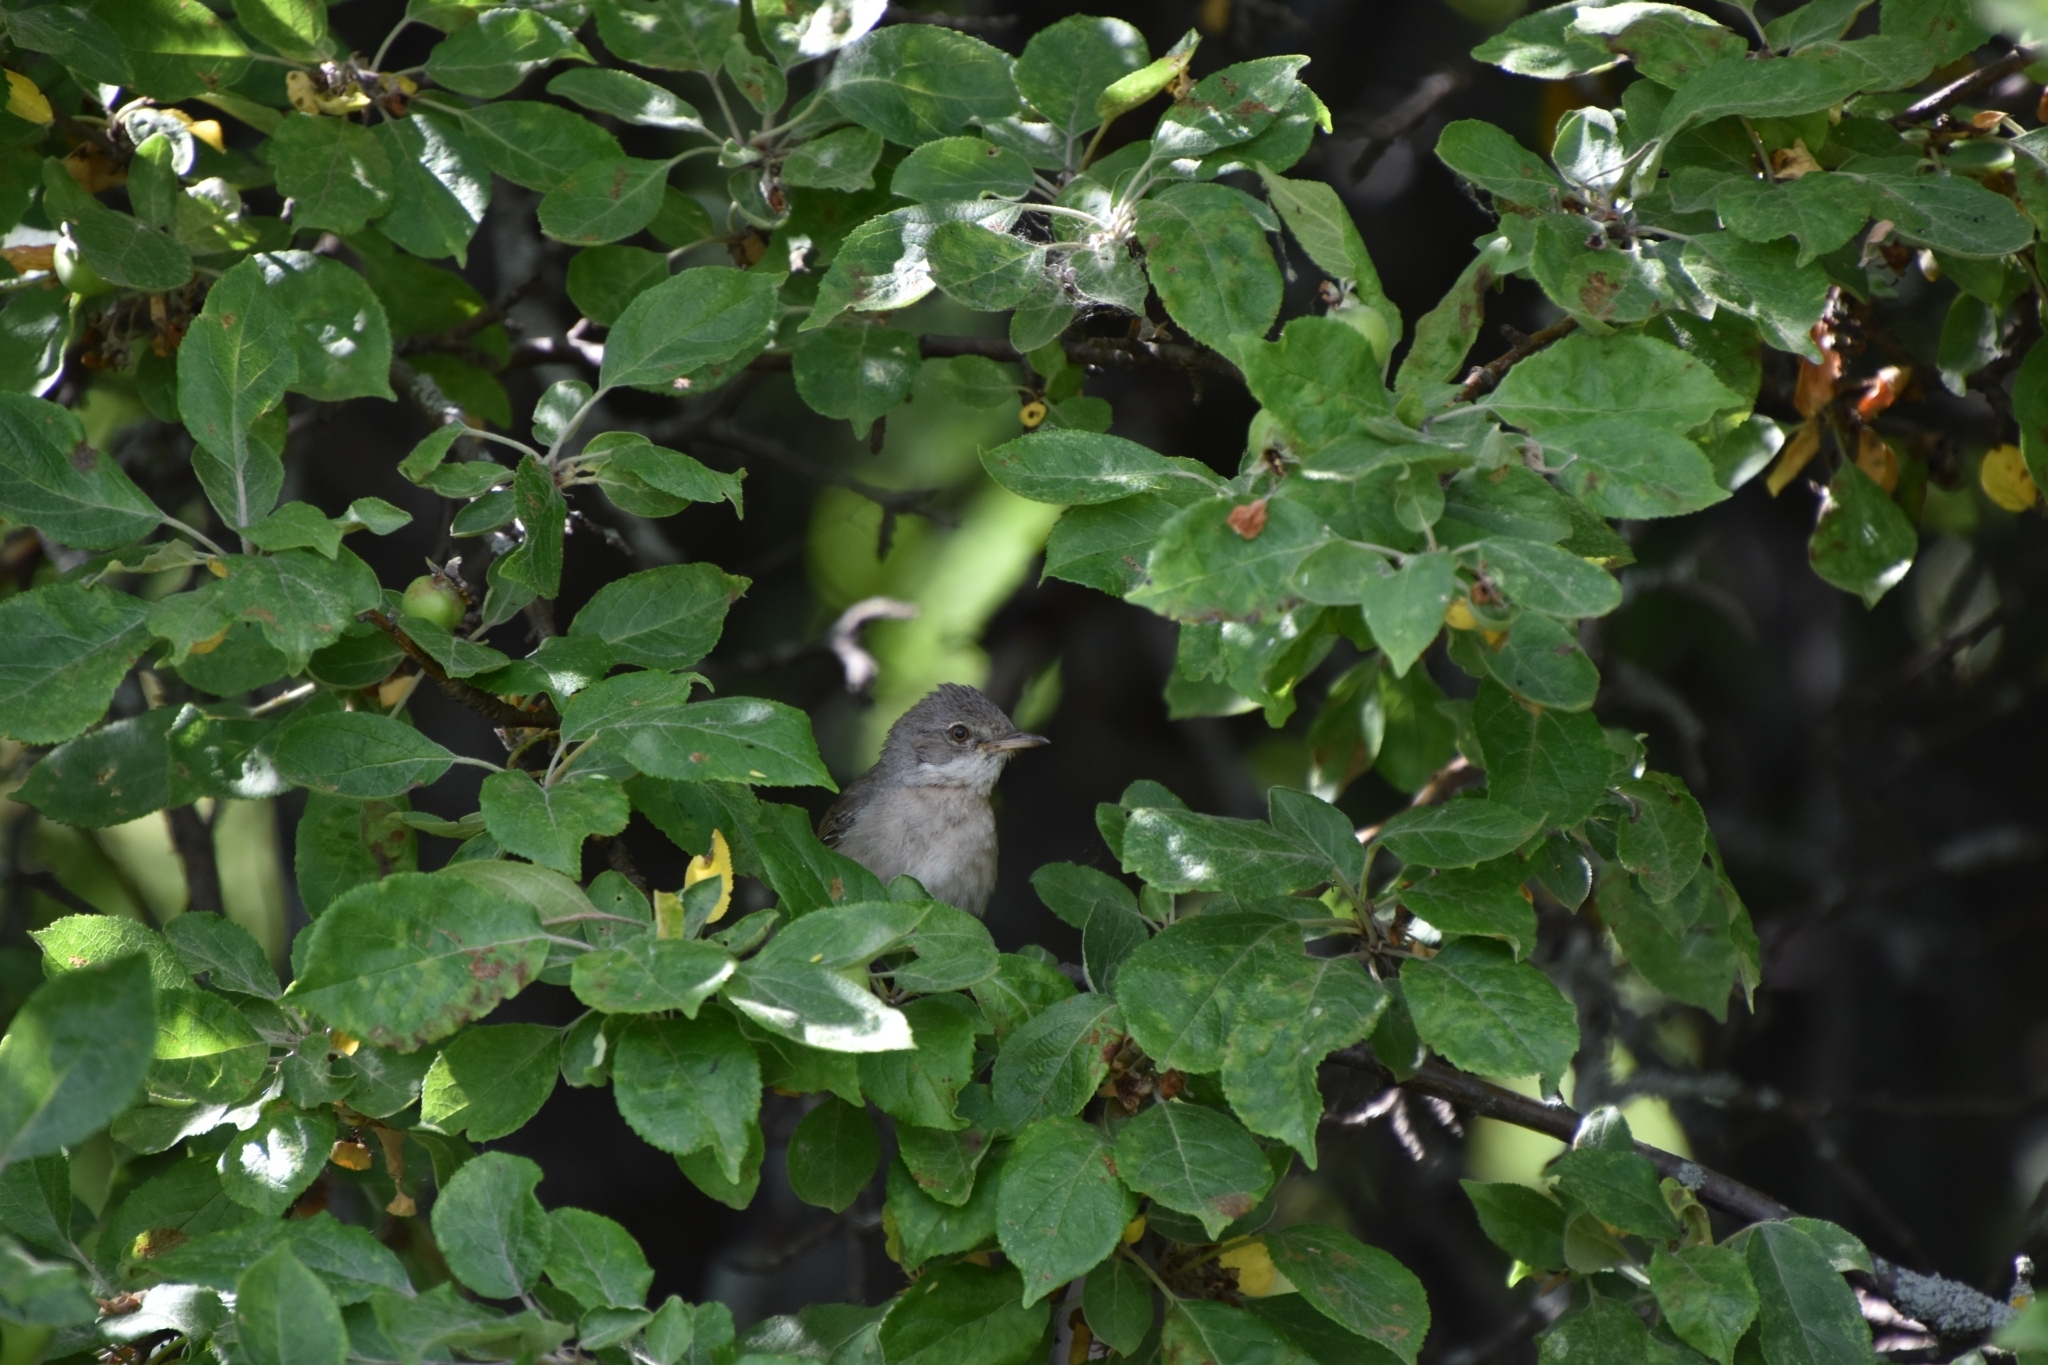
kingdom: Animalia
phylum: Chordata
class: Aves
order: Passeriformes
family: Sylviidae
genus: Sylvia
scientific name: Sylvia communis
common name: Common whitethroat
